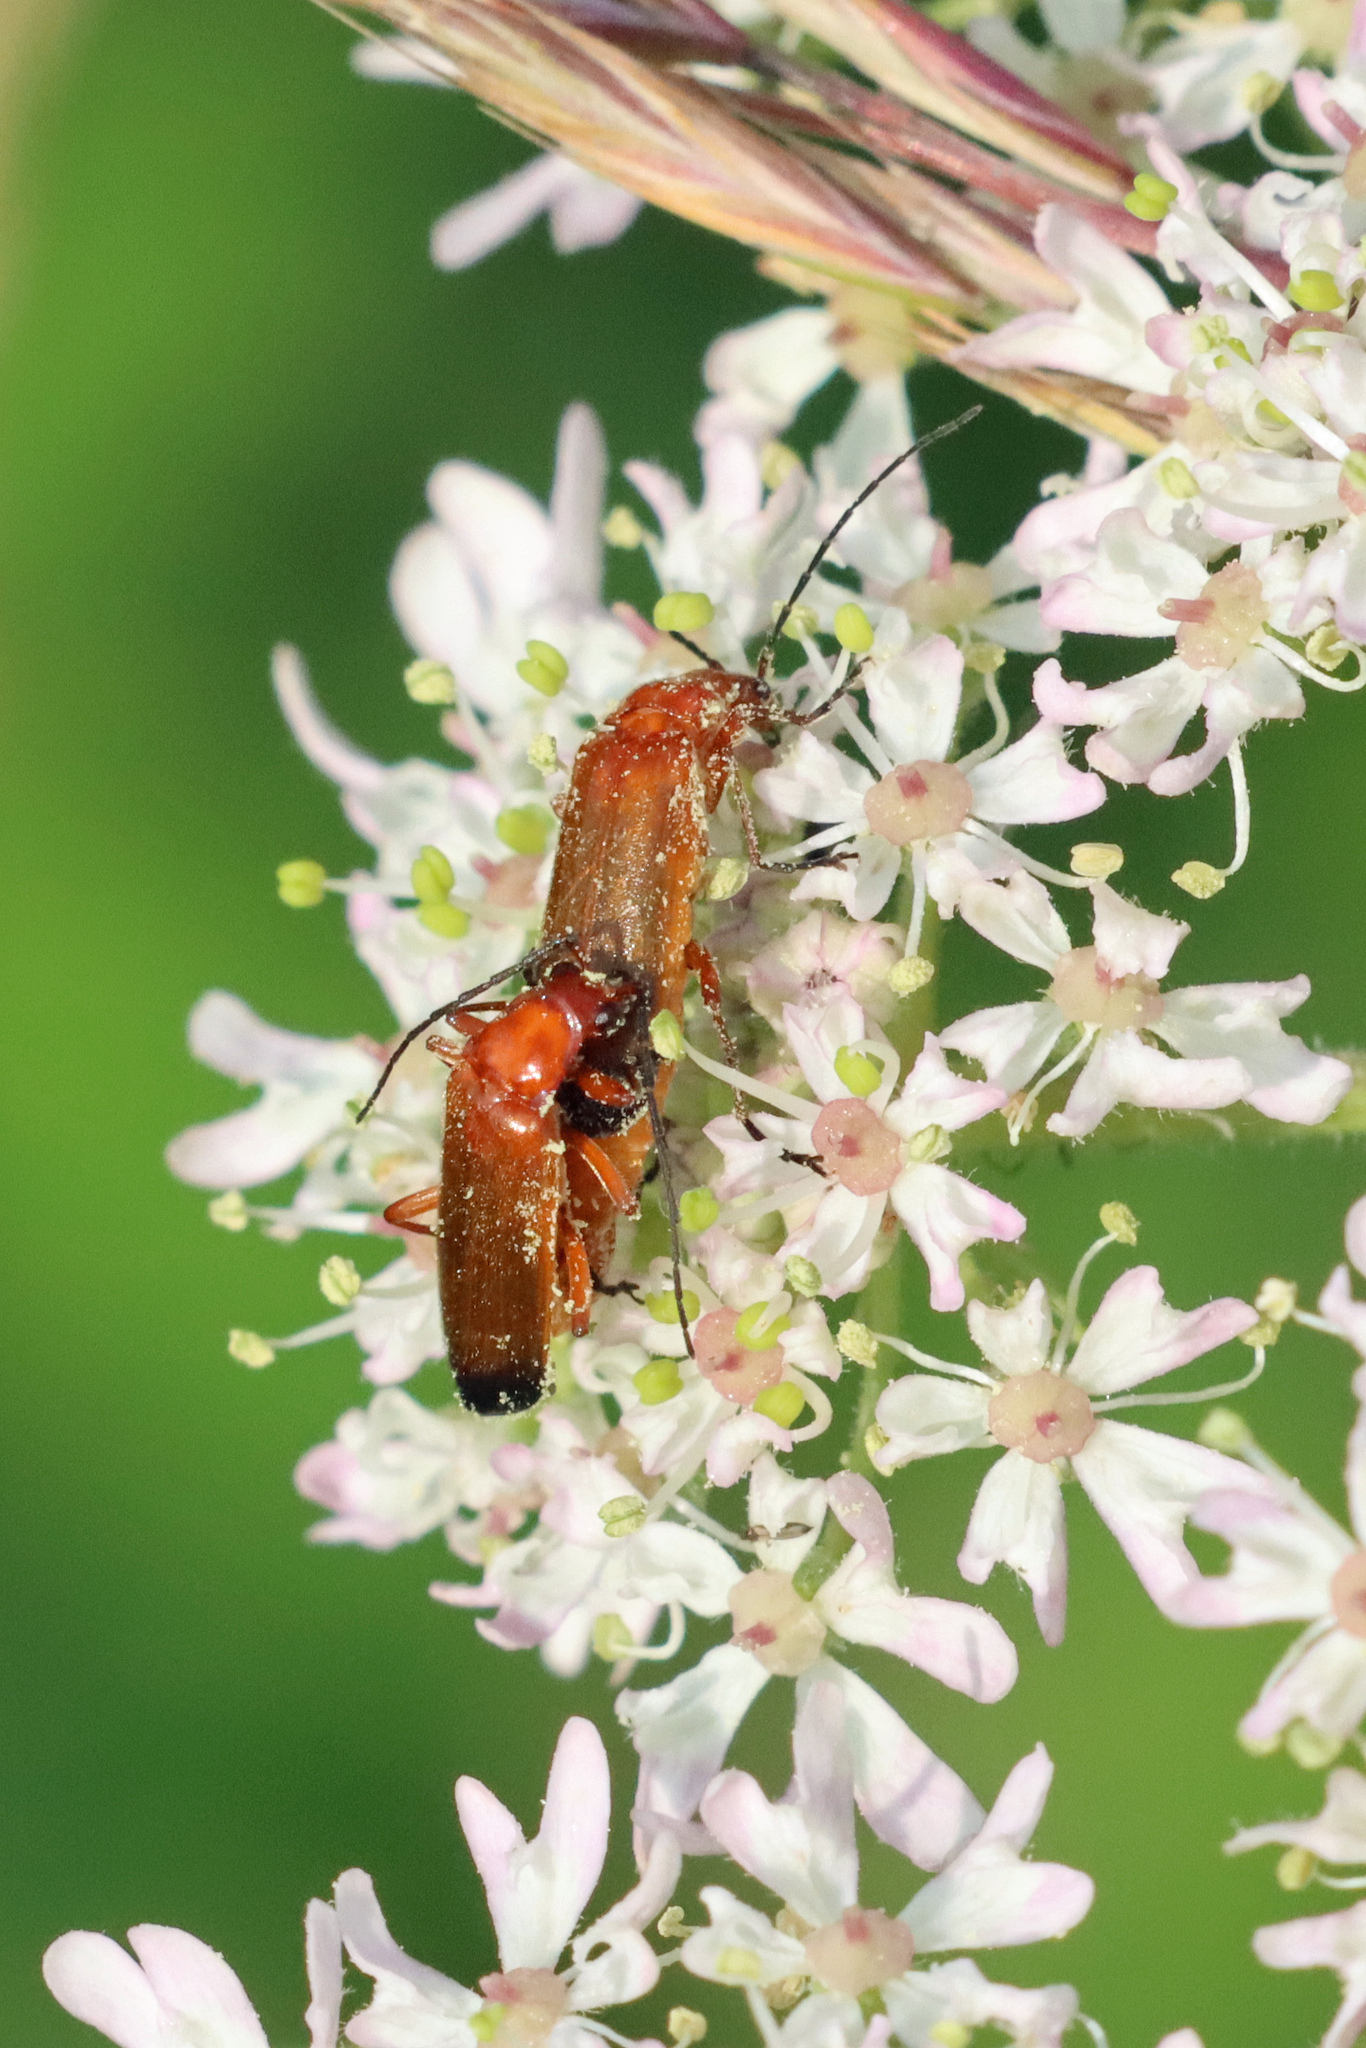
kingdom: Animalia
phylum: Arthropoda
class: Insecta
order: Coleoptera
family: Cantharidae
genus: Rhagonycha
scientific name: Rhagonycha fulva
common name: Common red soldier beetle
